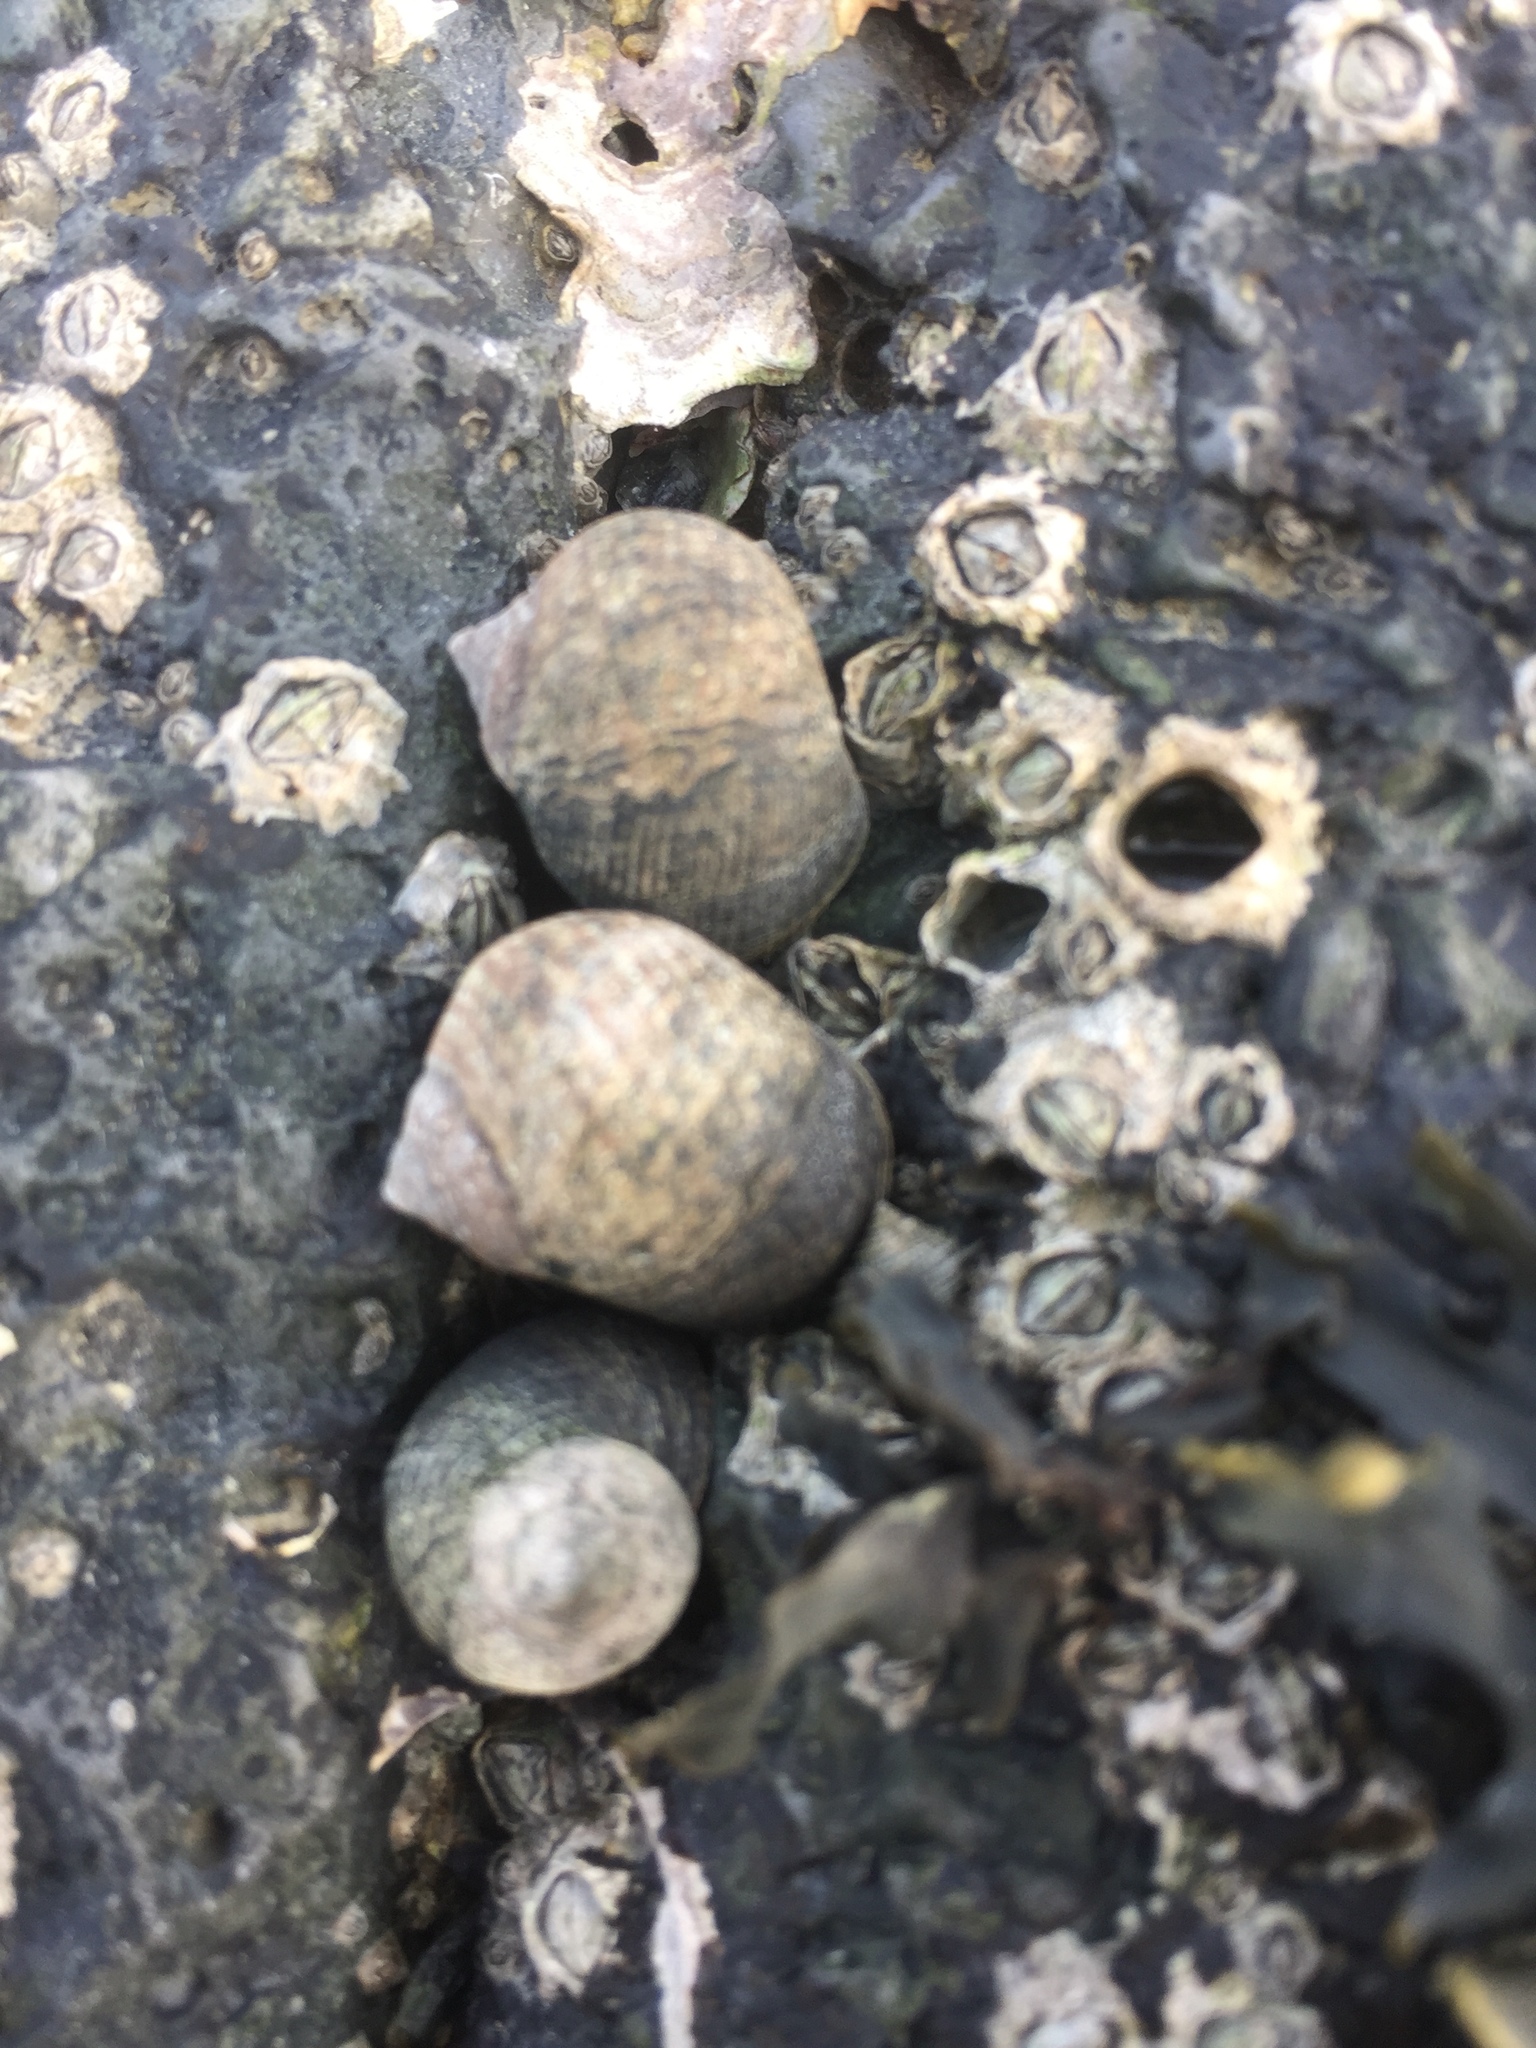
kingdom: Animalia
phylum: Arthropoda
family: Elminiidae
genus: Austrominius
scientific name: Austrominius modestus
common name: Australasian barnacle
